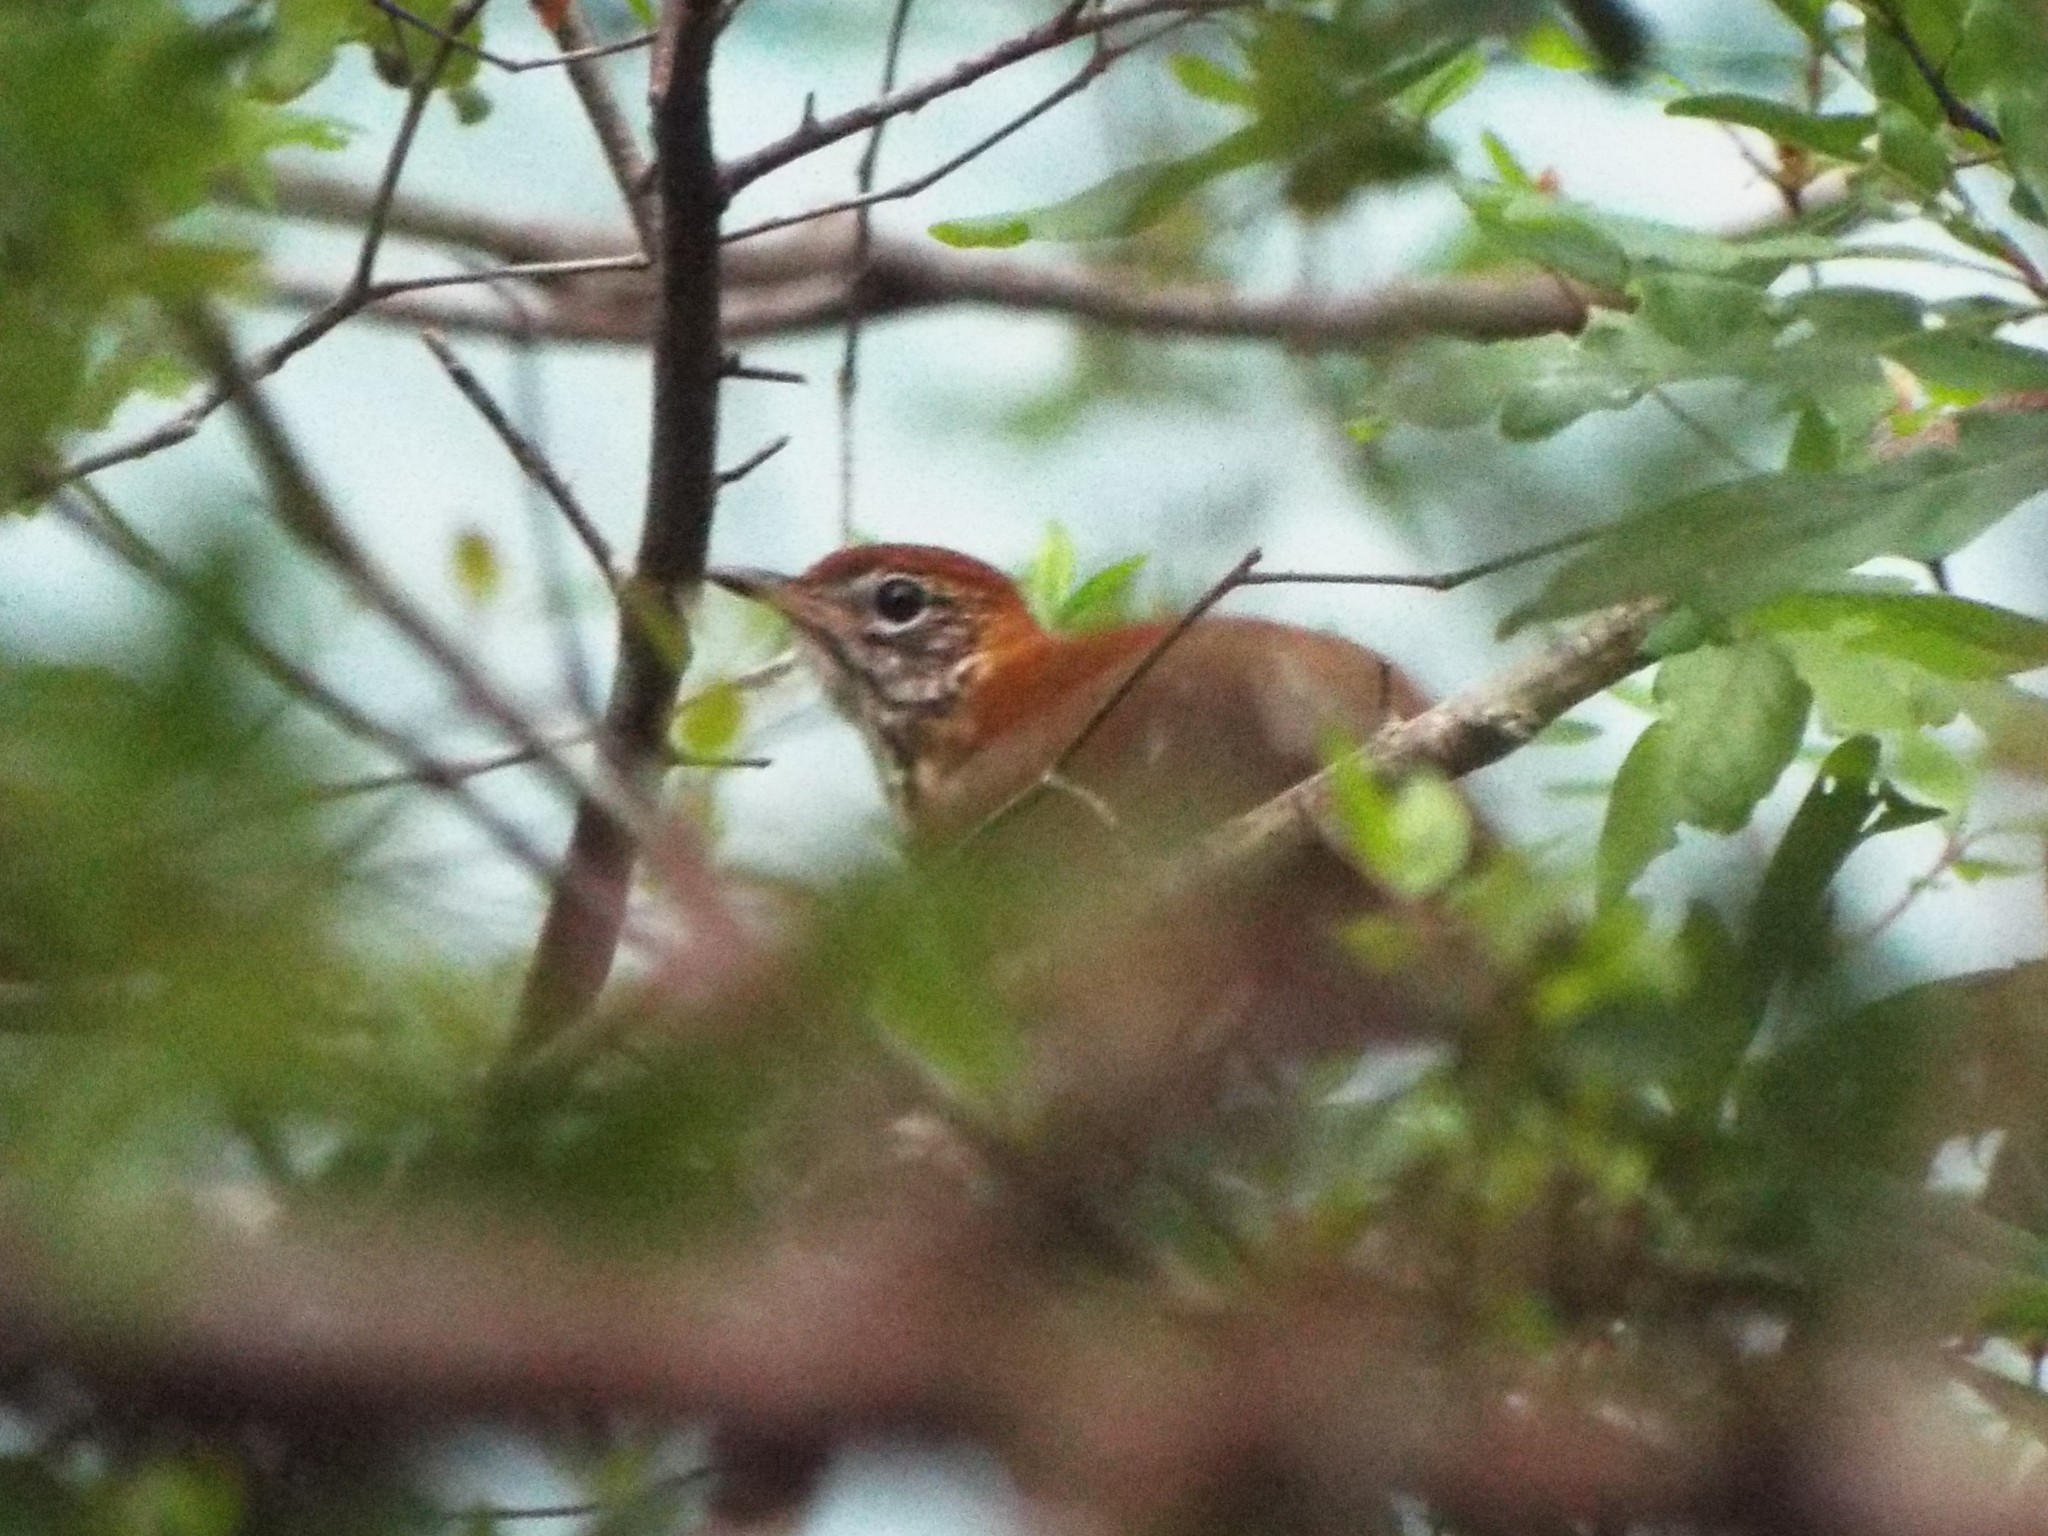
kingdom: Animalia
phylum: Chordata
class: Aves
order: Passeriformes
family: Turdidae
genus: Hylocichla
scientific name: Hylocichla mustelina
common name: Wood thrush
